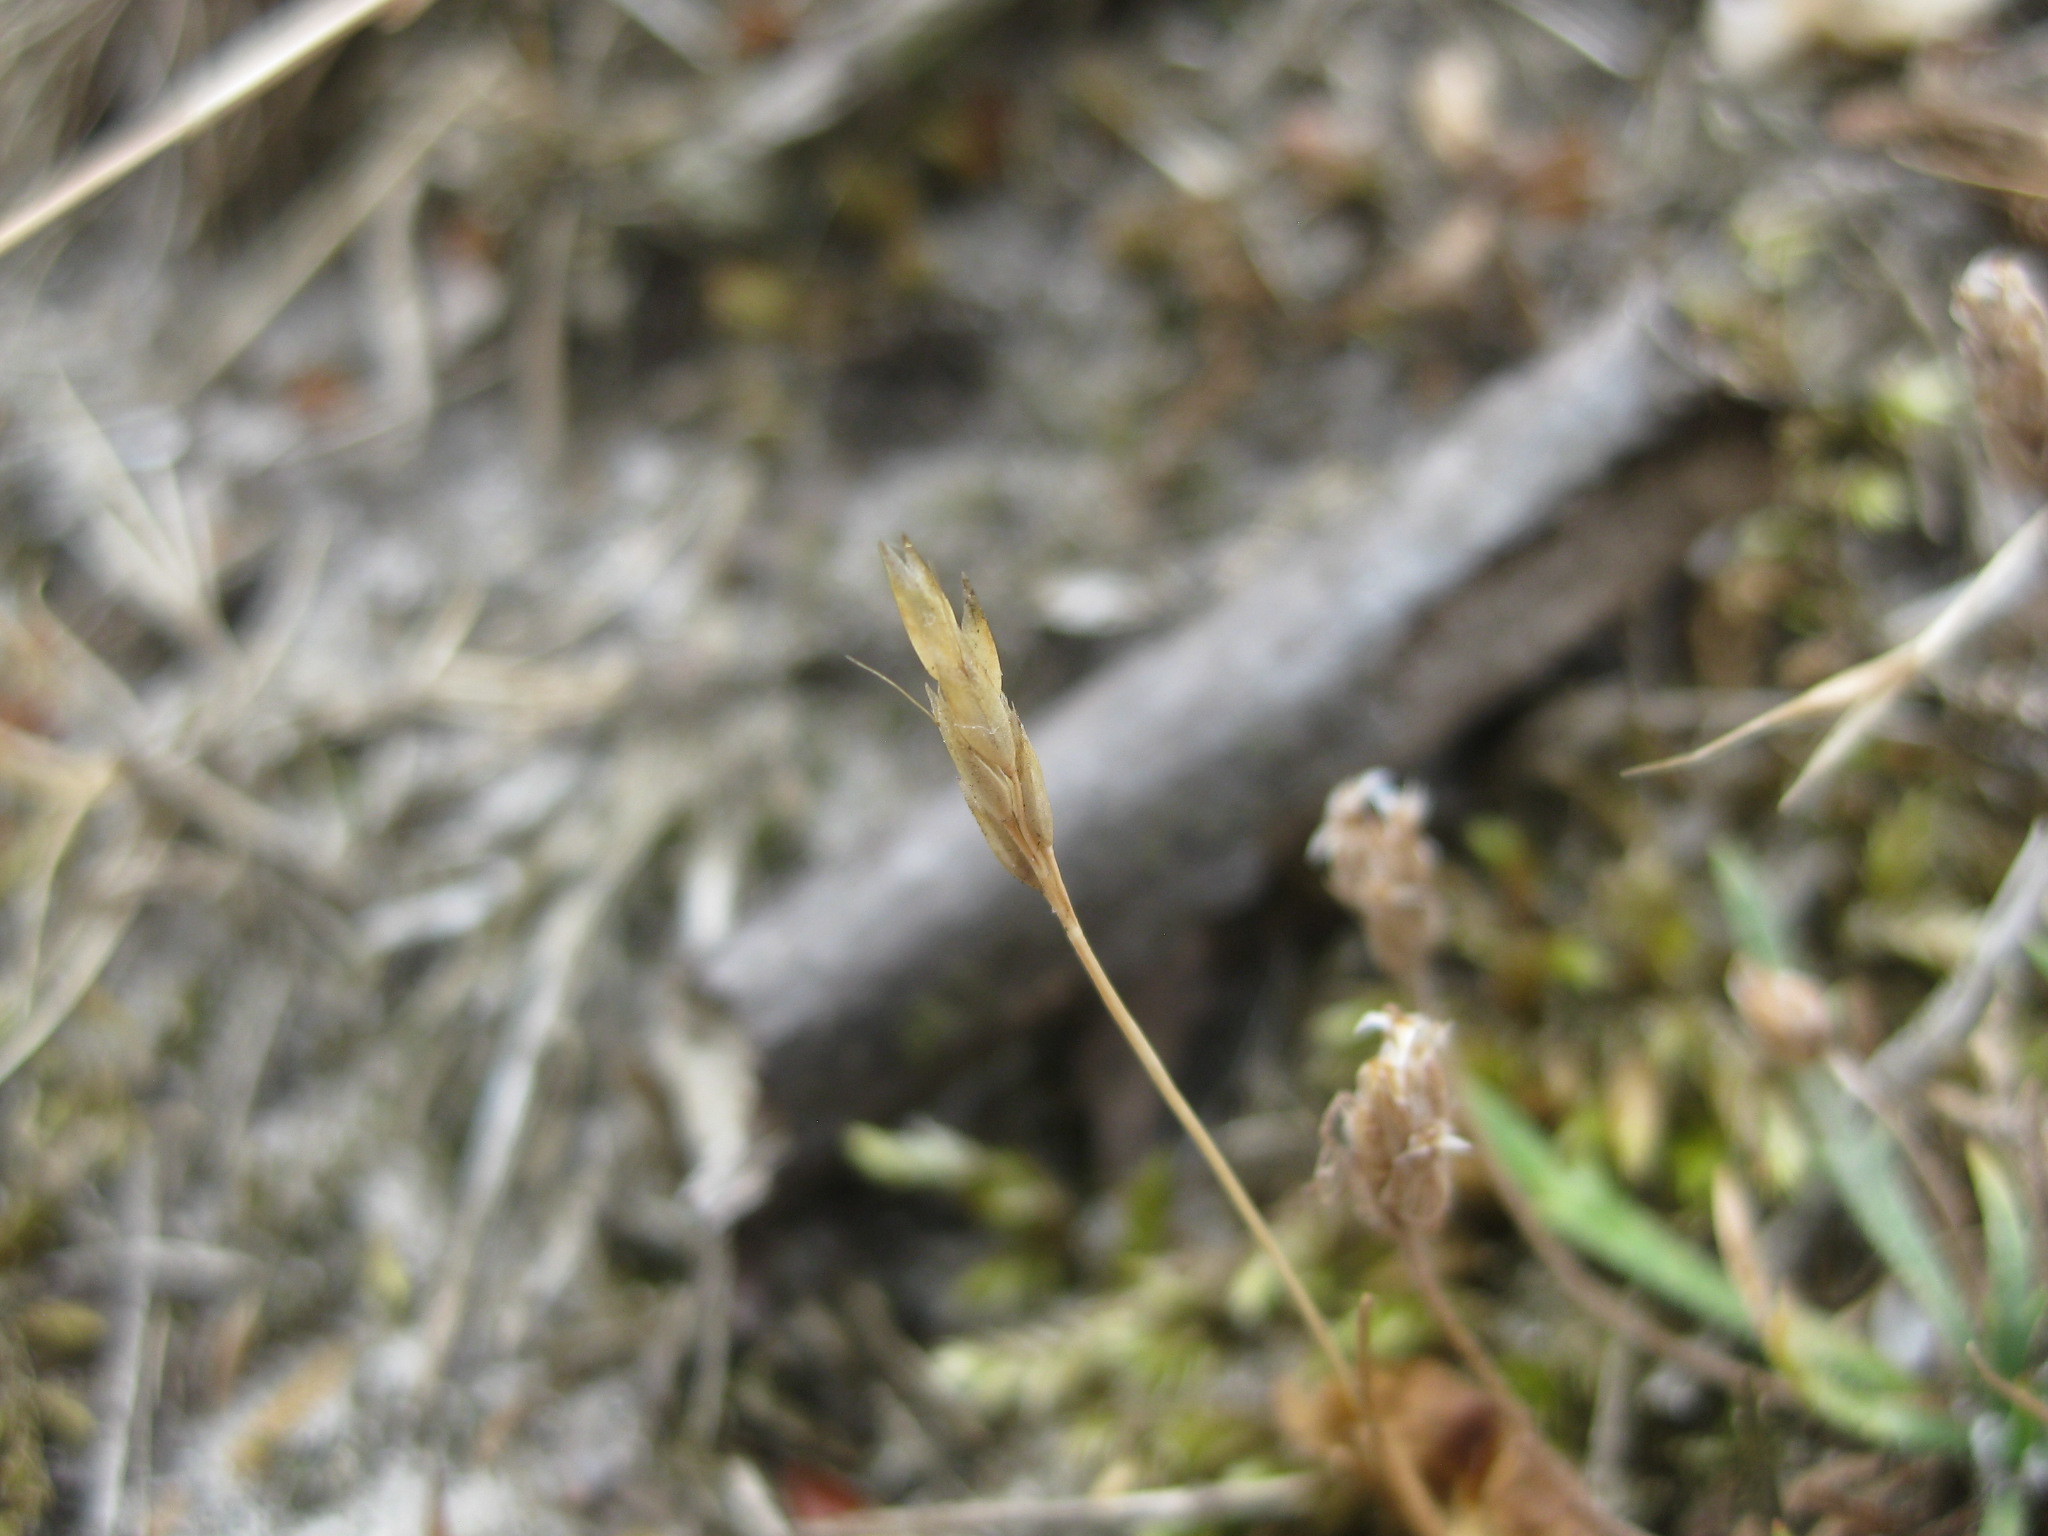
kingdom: Plantae
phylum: Tracheophyta
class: Liliopsida
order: Poales
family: Poaceae
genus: Aira
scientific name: Aira praecox
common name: Early hair-grass
